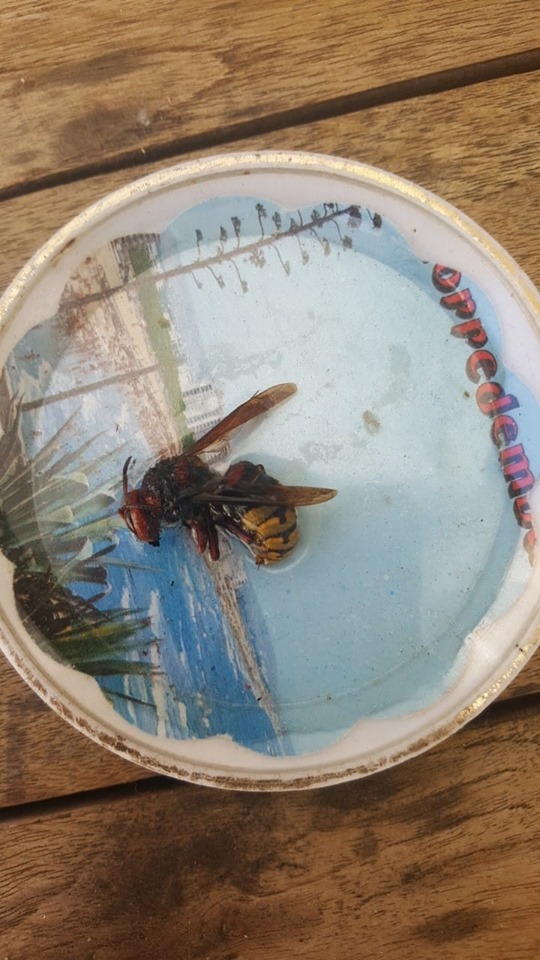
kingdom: Animalia
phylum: Arthropoda
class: Insecta
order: Hymenoptera
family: Vespidae
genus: Vespa
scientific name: Vespa crabro
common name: Hornet
